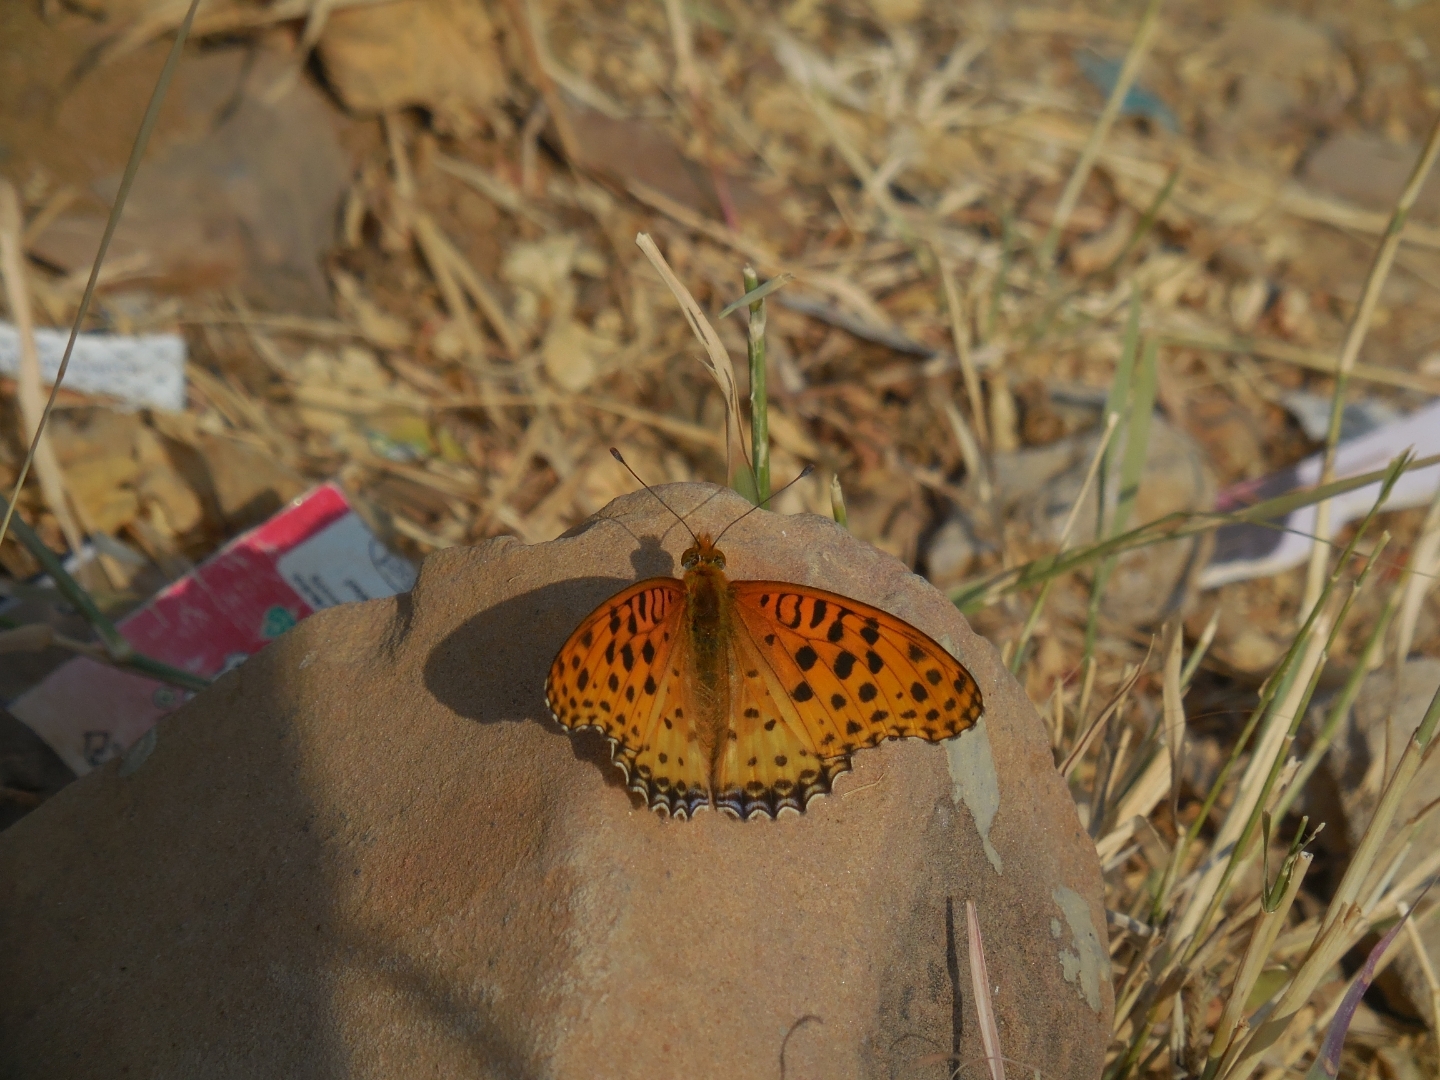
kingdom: Animalia
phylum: Arthropoda
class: Insecta
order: Lepidoptera
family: Nymphalidae
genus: Argynnis
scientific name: Argynnis hyperbius
